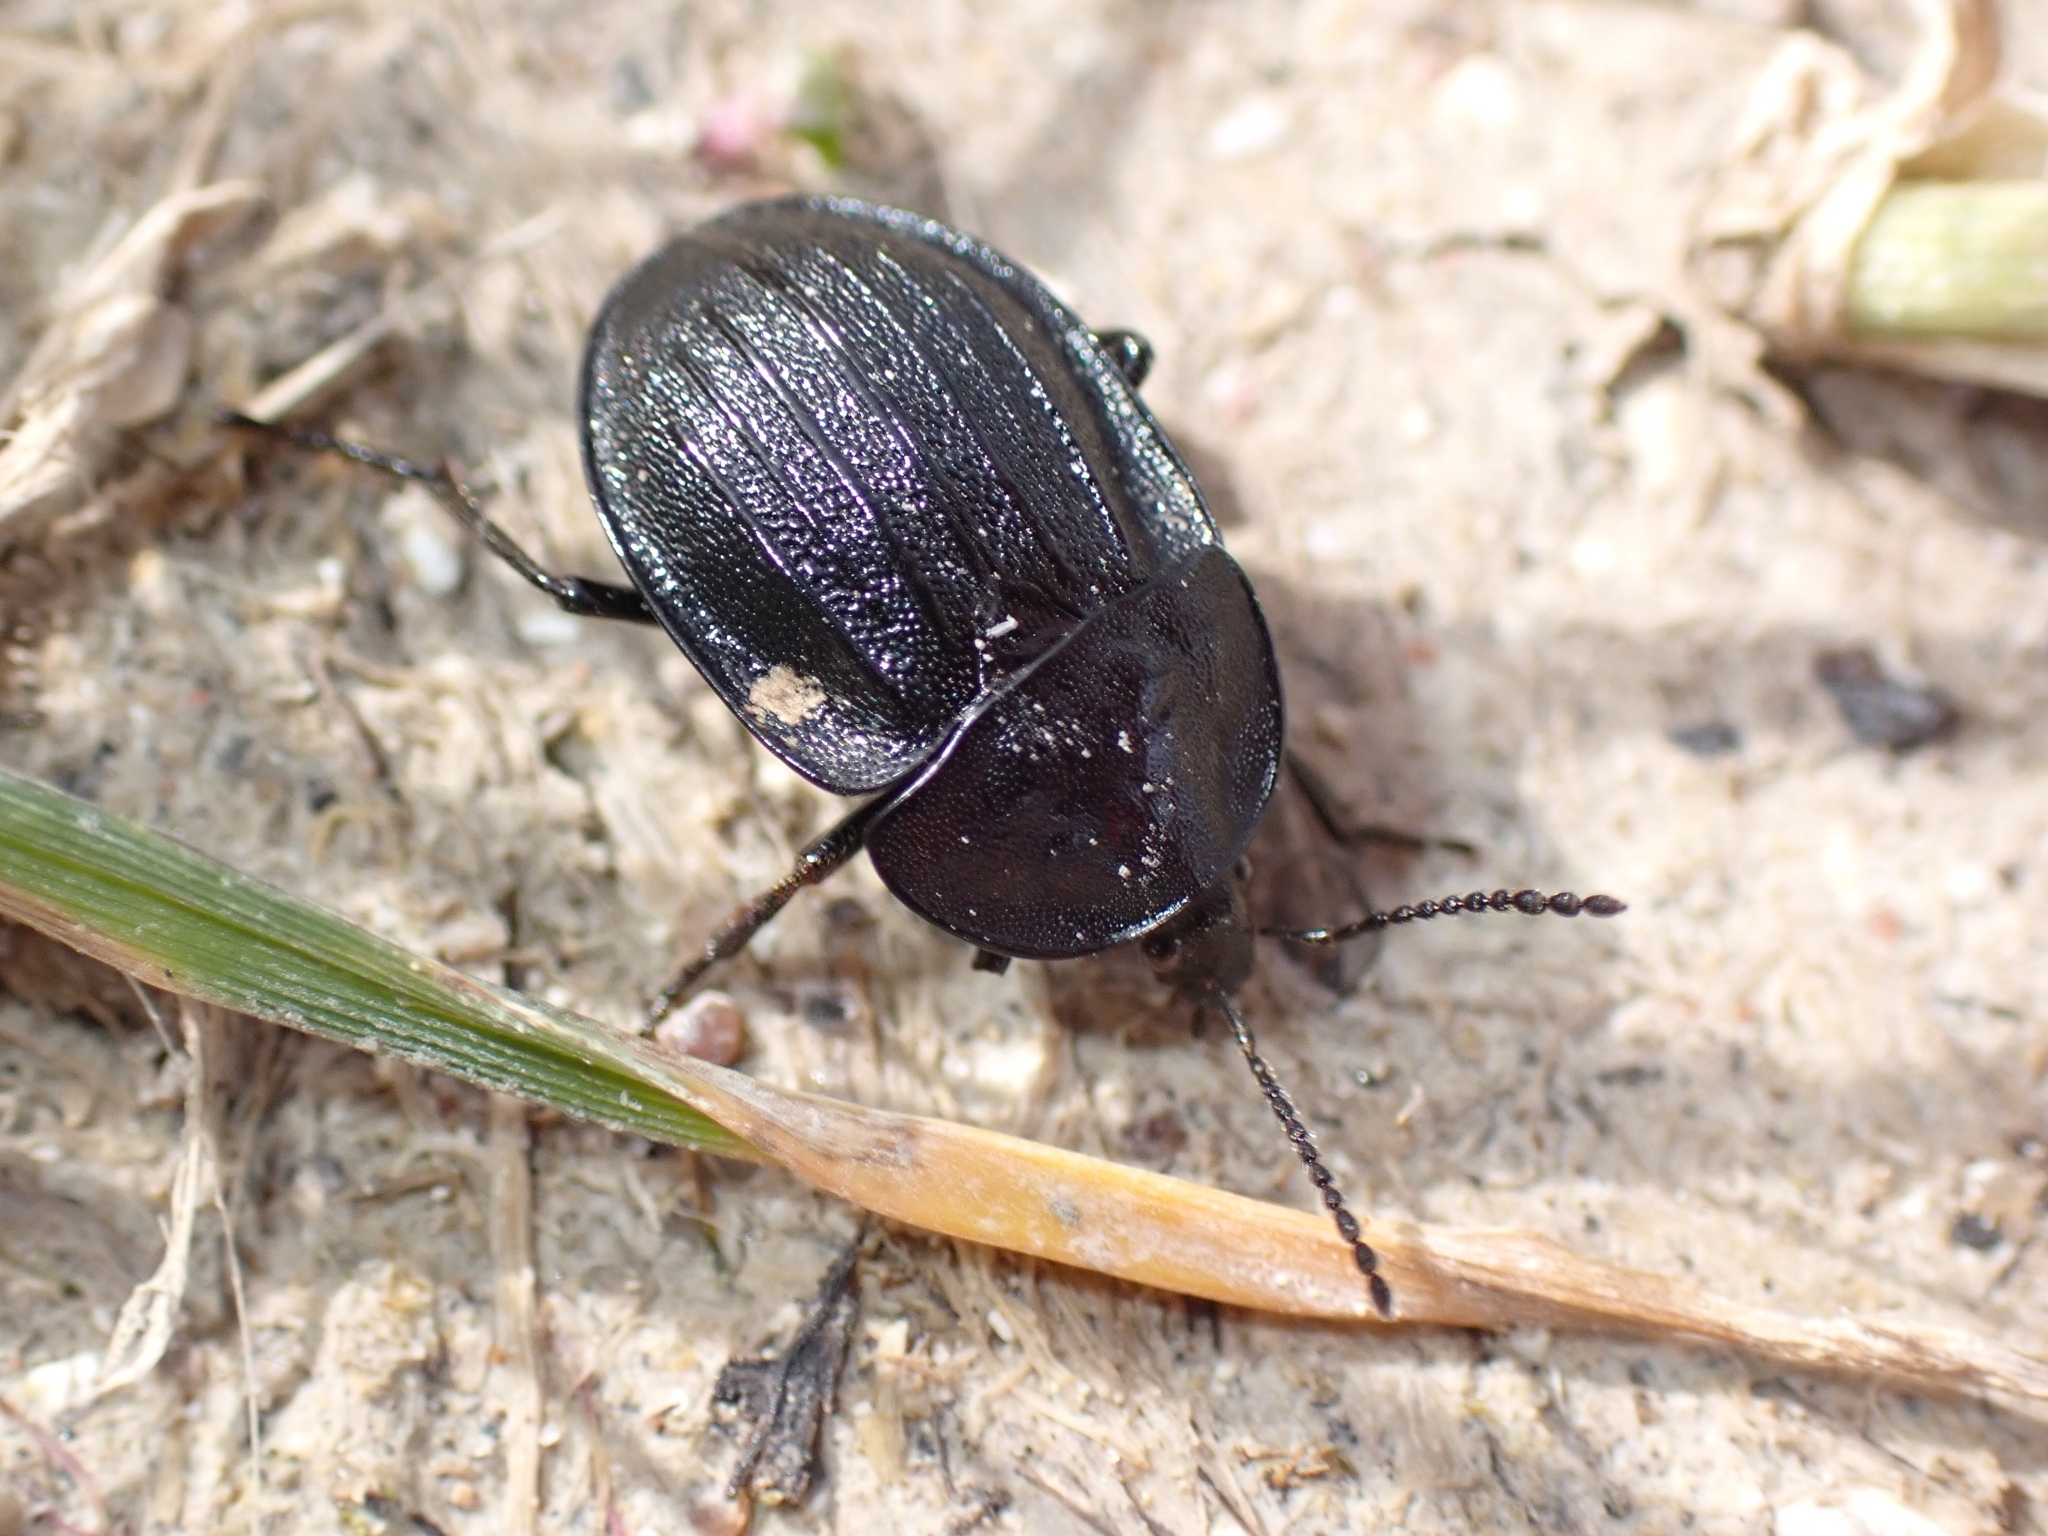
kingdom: Animalia
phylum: Arthropoda
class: Insecta
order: Coleoptera
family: Staphylinidae
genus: Silpha
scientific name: Silpha atrata
